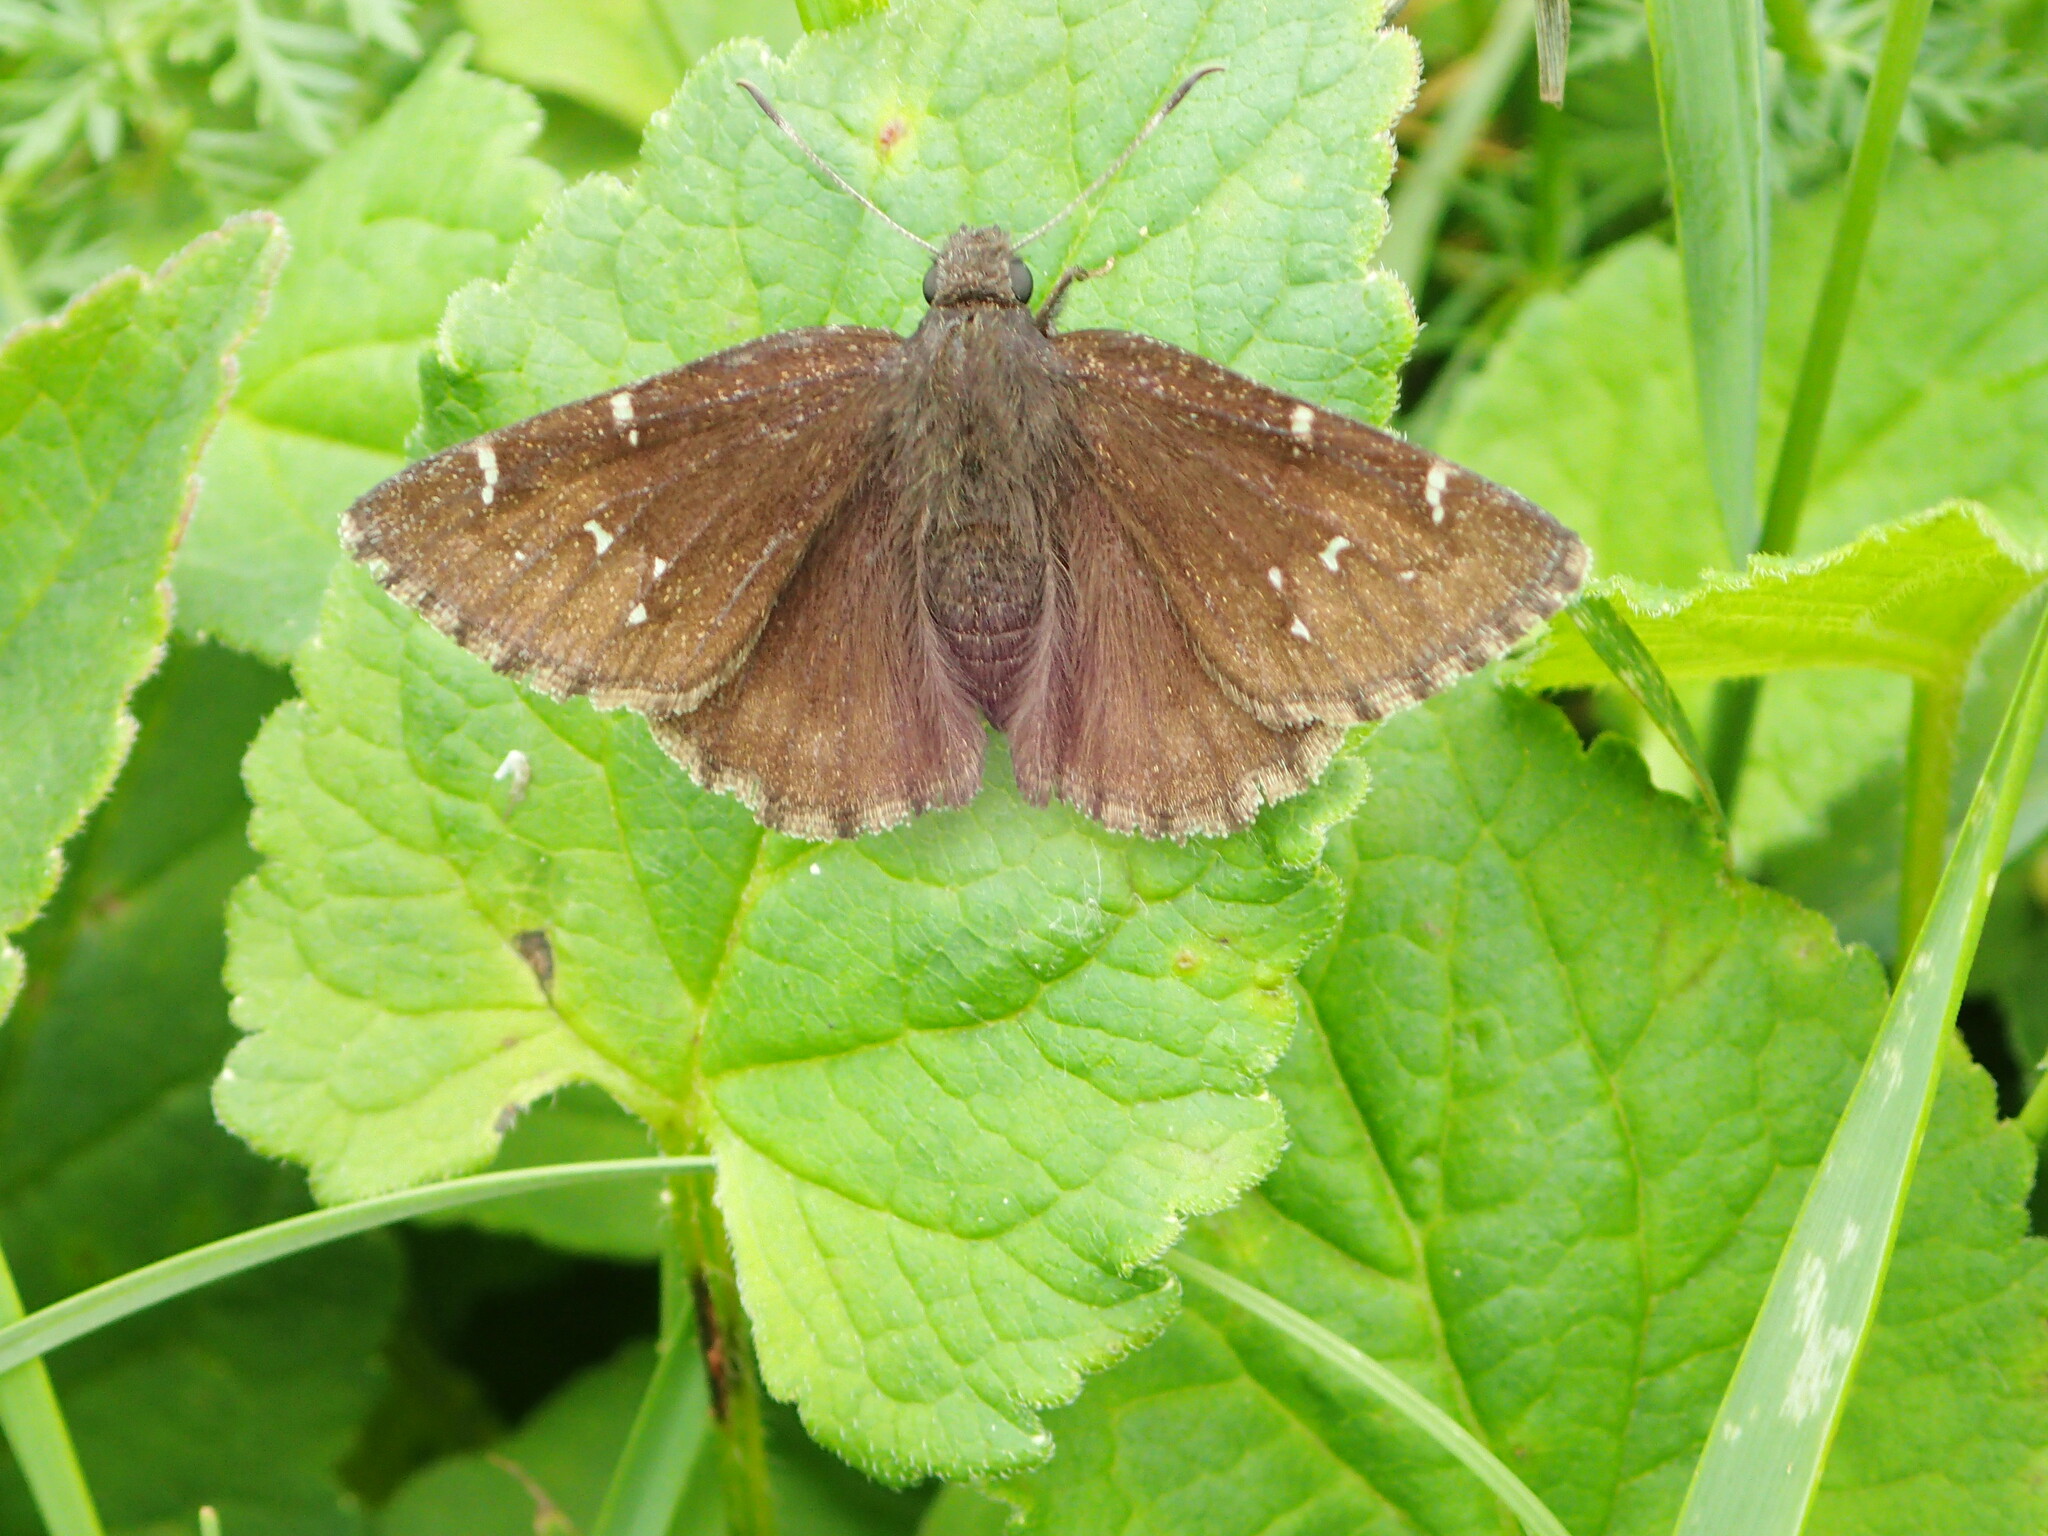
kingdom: Animalia
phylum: Arthropoda
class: Insecta
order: Lepidoptera
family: Hesperiidae
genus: Thorybes
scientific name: Thorybes pylades
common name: Northern cloudywing
